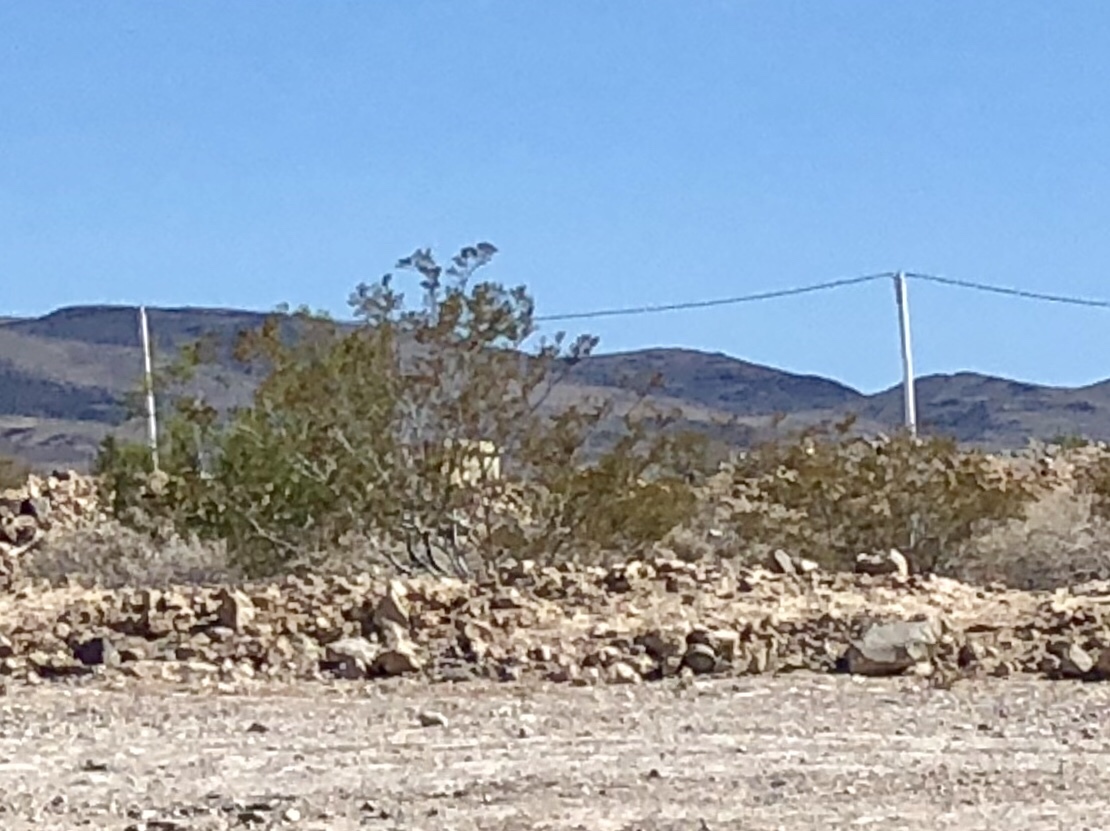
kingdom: Plantae
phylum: Tracheophyta
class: Magnoliopsida
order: Zygophyllales
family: Zygophyllaceae
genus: Larrea
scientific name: Larrea tridentata
